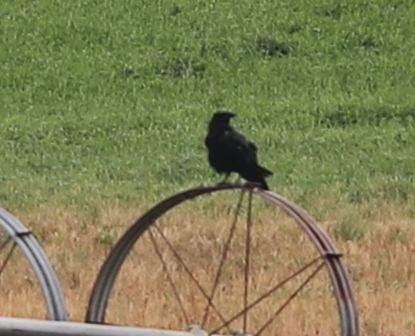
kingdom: Animalia
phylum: Chordata
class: Aves
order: Passeriformes
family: Corvidae
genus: Corvus
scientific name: Corvus corax
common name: Common raven
